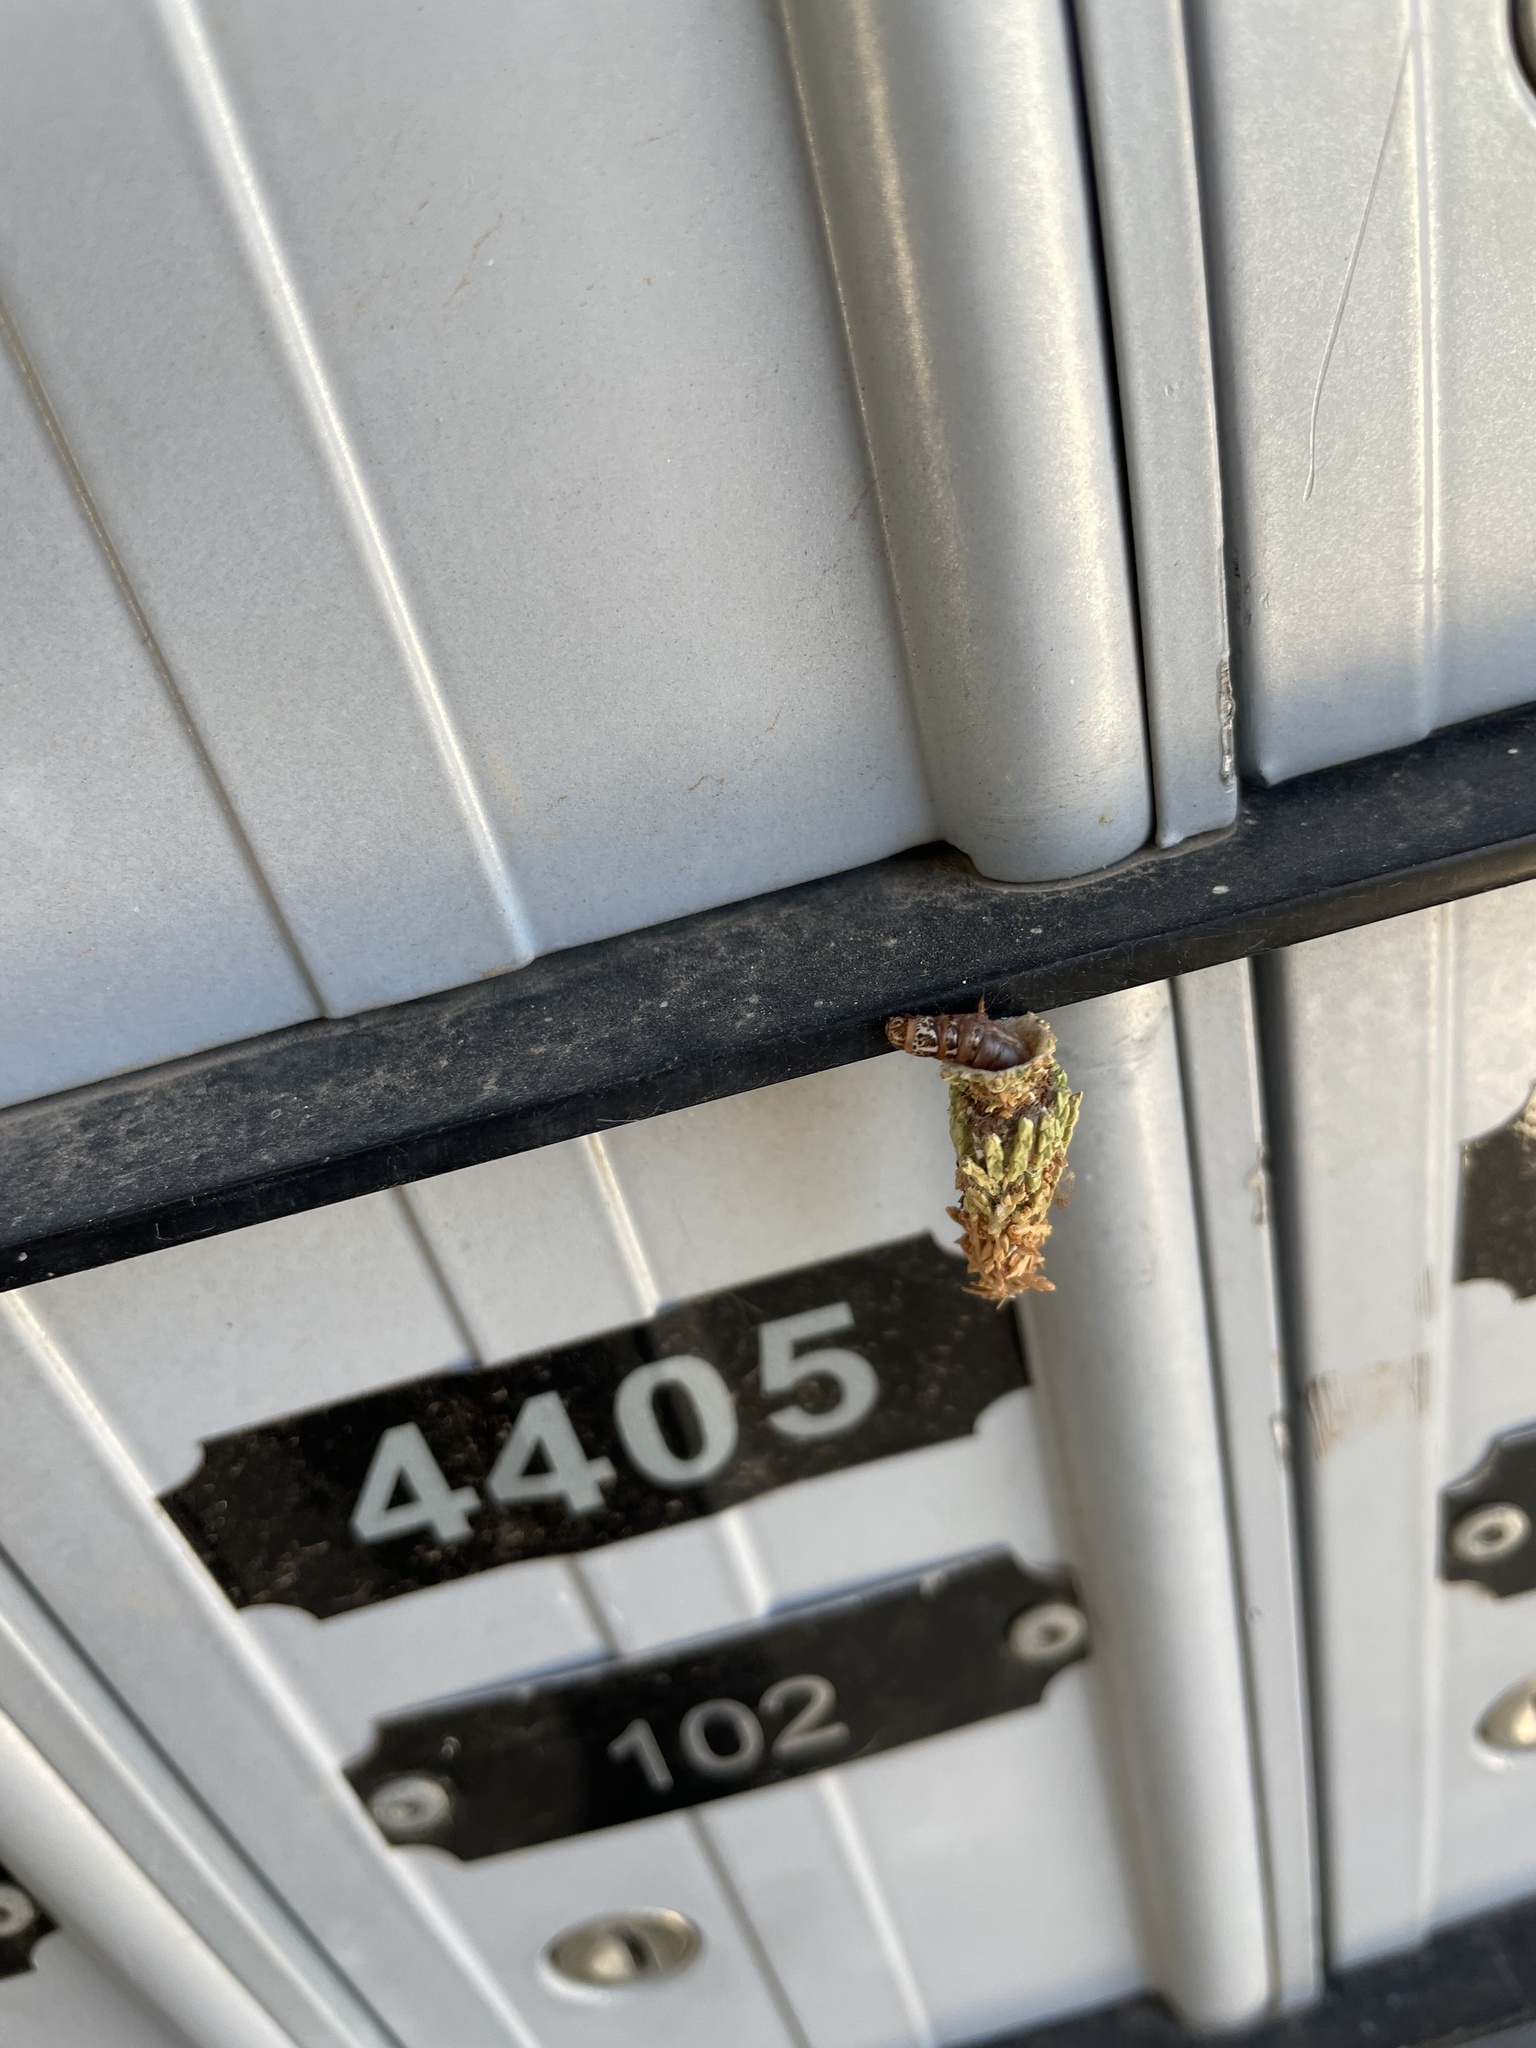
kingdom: Animalia
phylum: Arthropoda
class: Insecta
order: Lepidoptera
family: Psychidae
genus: Thyridopteryx
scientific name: Thyridopteryx ephemeraeformis
